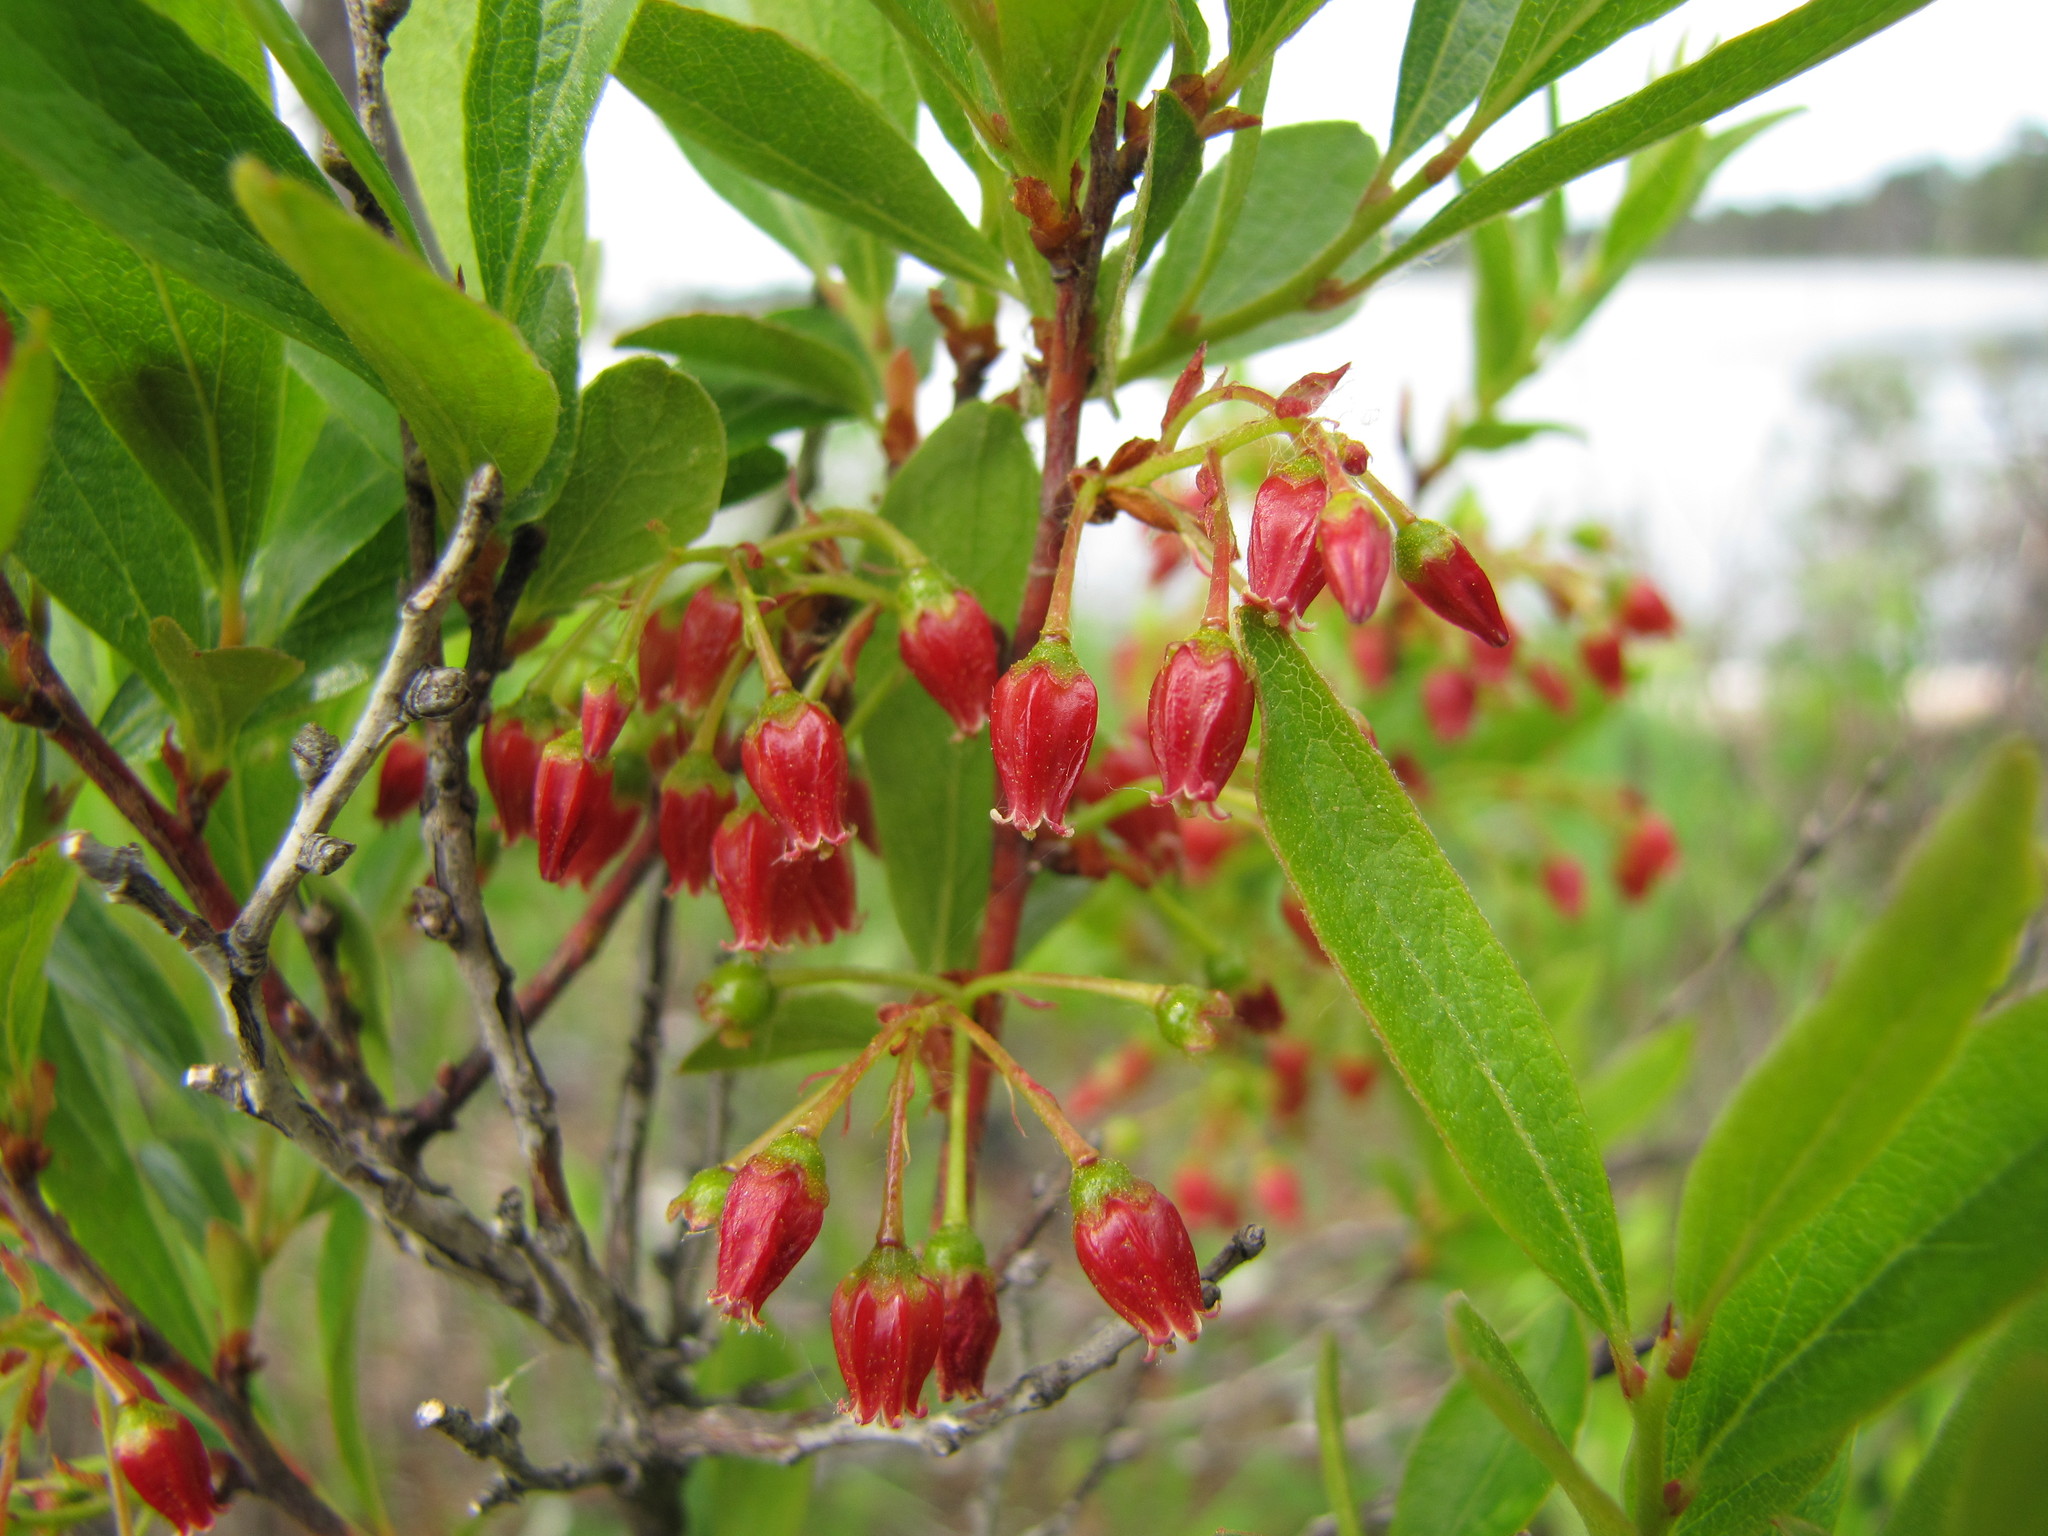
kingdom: Plantae
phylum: Tracheophyta
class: Magnoliopsida
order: Ericales
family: Ericaceae
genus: Gaylussacia
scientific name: Gaylussacia baccata
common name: Black huckleberry
